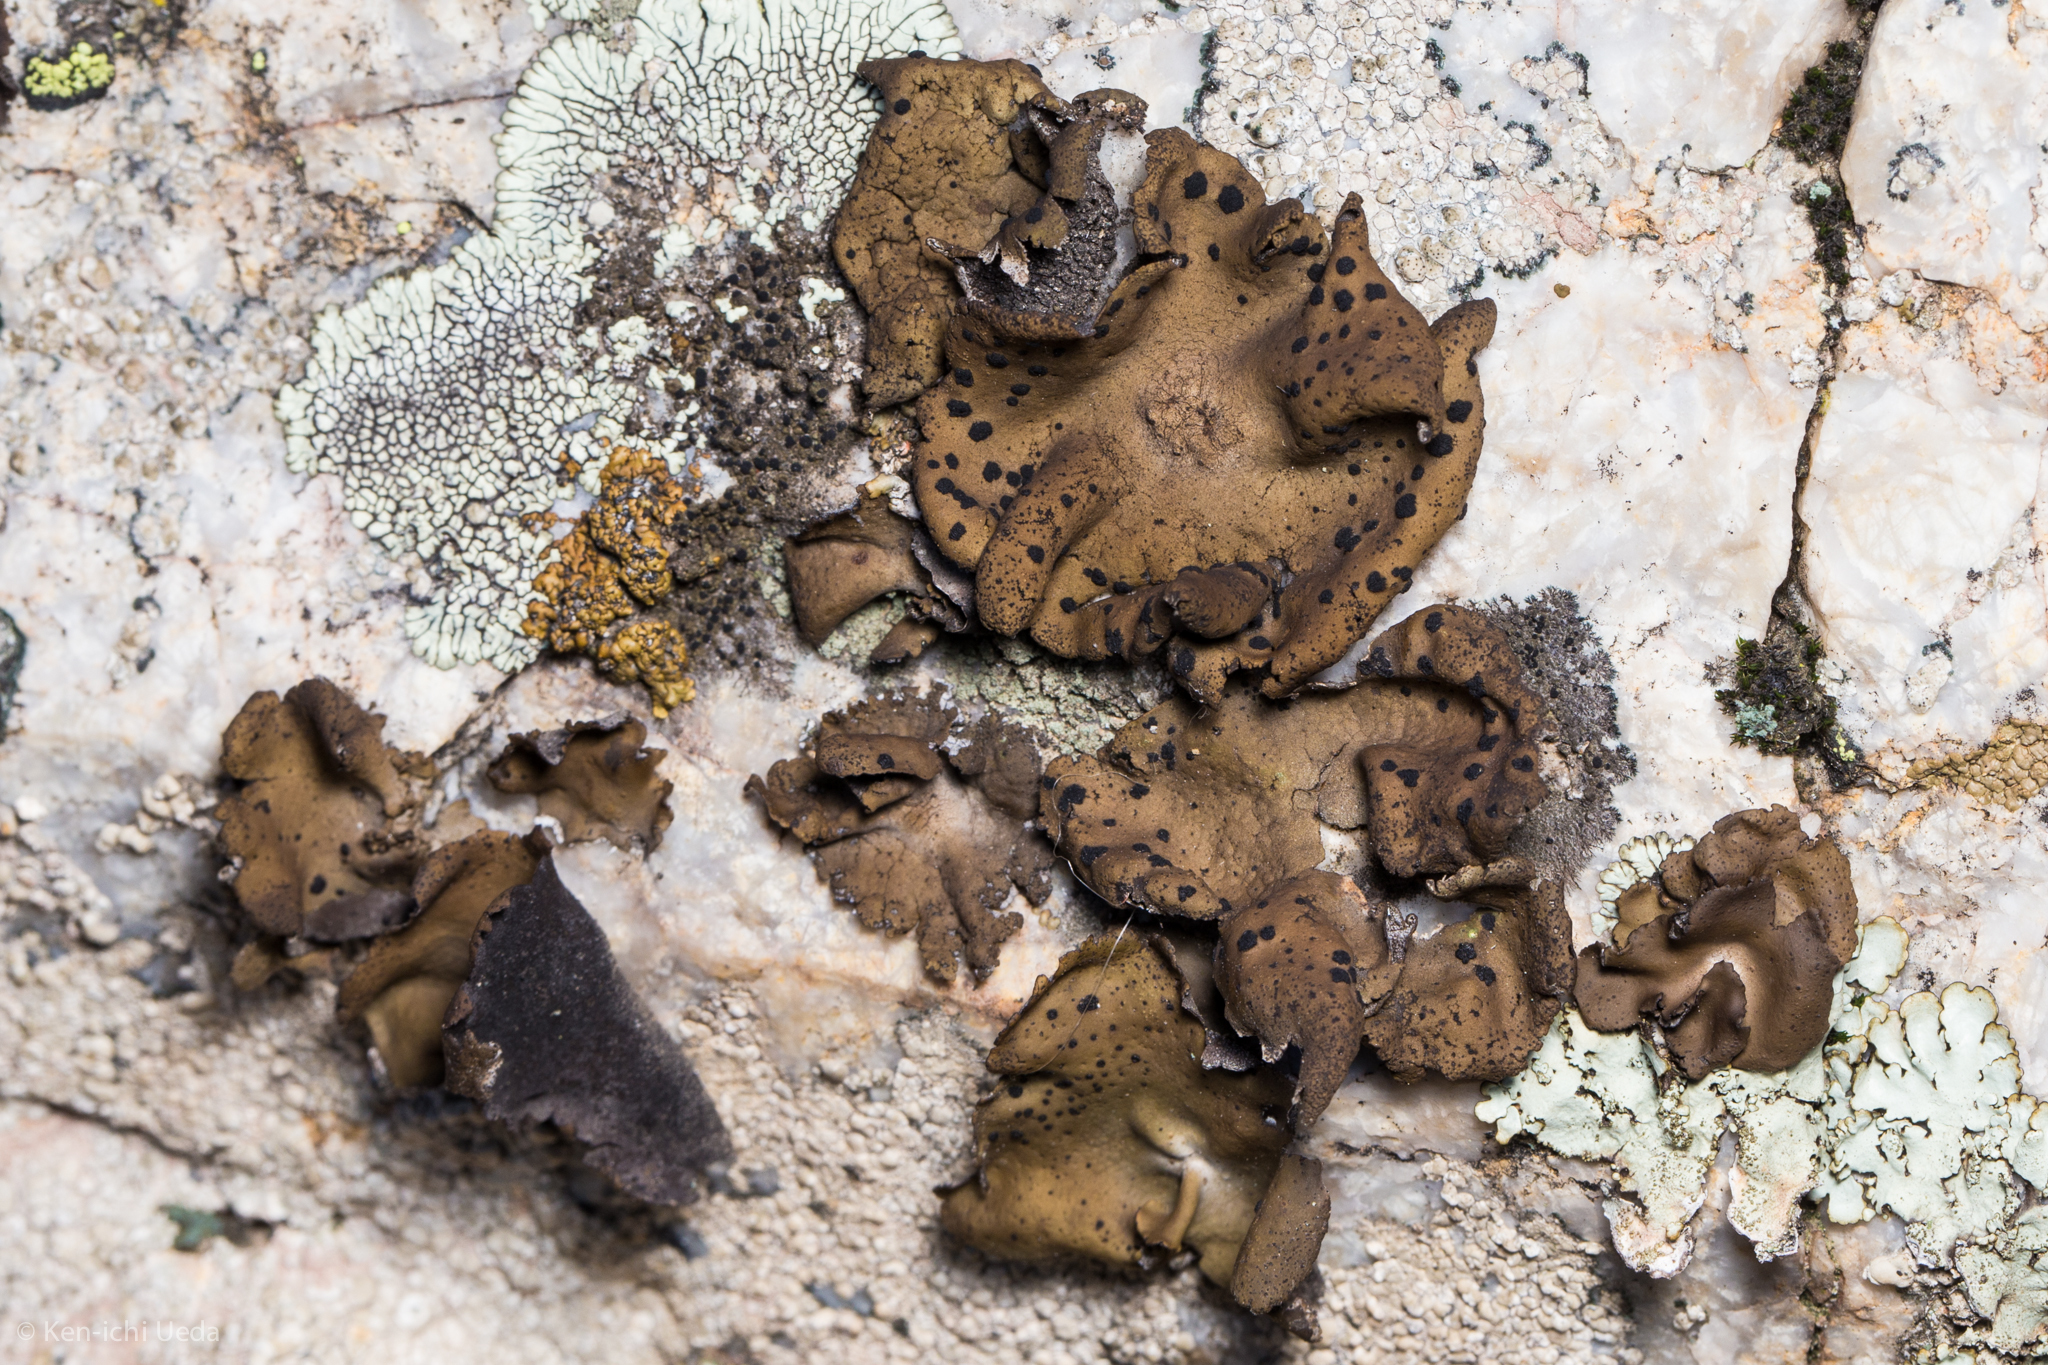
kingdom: Fungi
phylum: Ascomycota
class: Lecanoromycetes
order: Umbilicariales
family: Umbilicariaceae
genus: Umbilicaria
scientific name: Umbilicaria phaea
